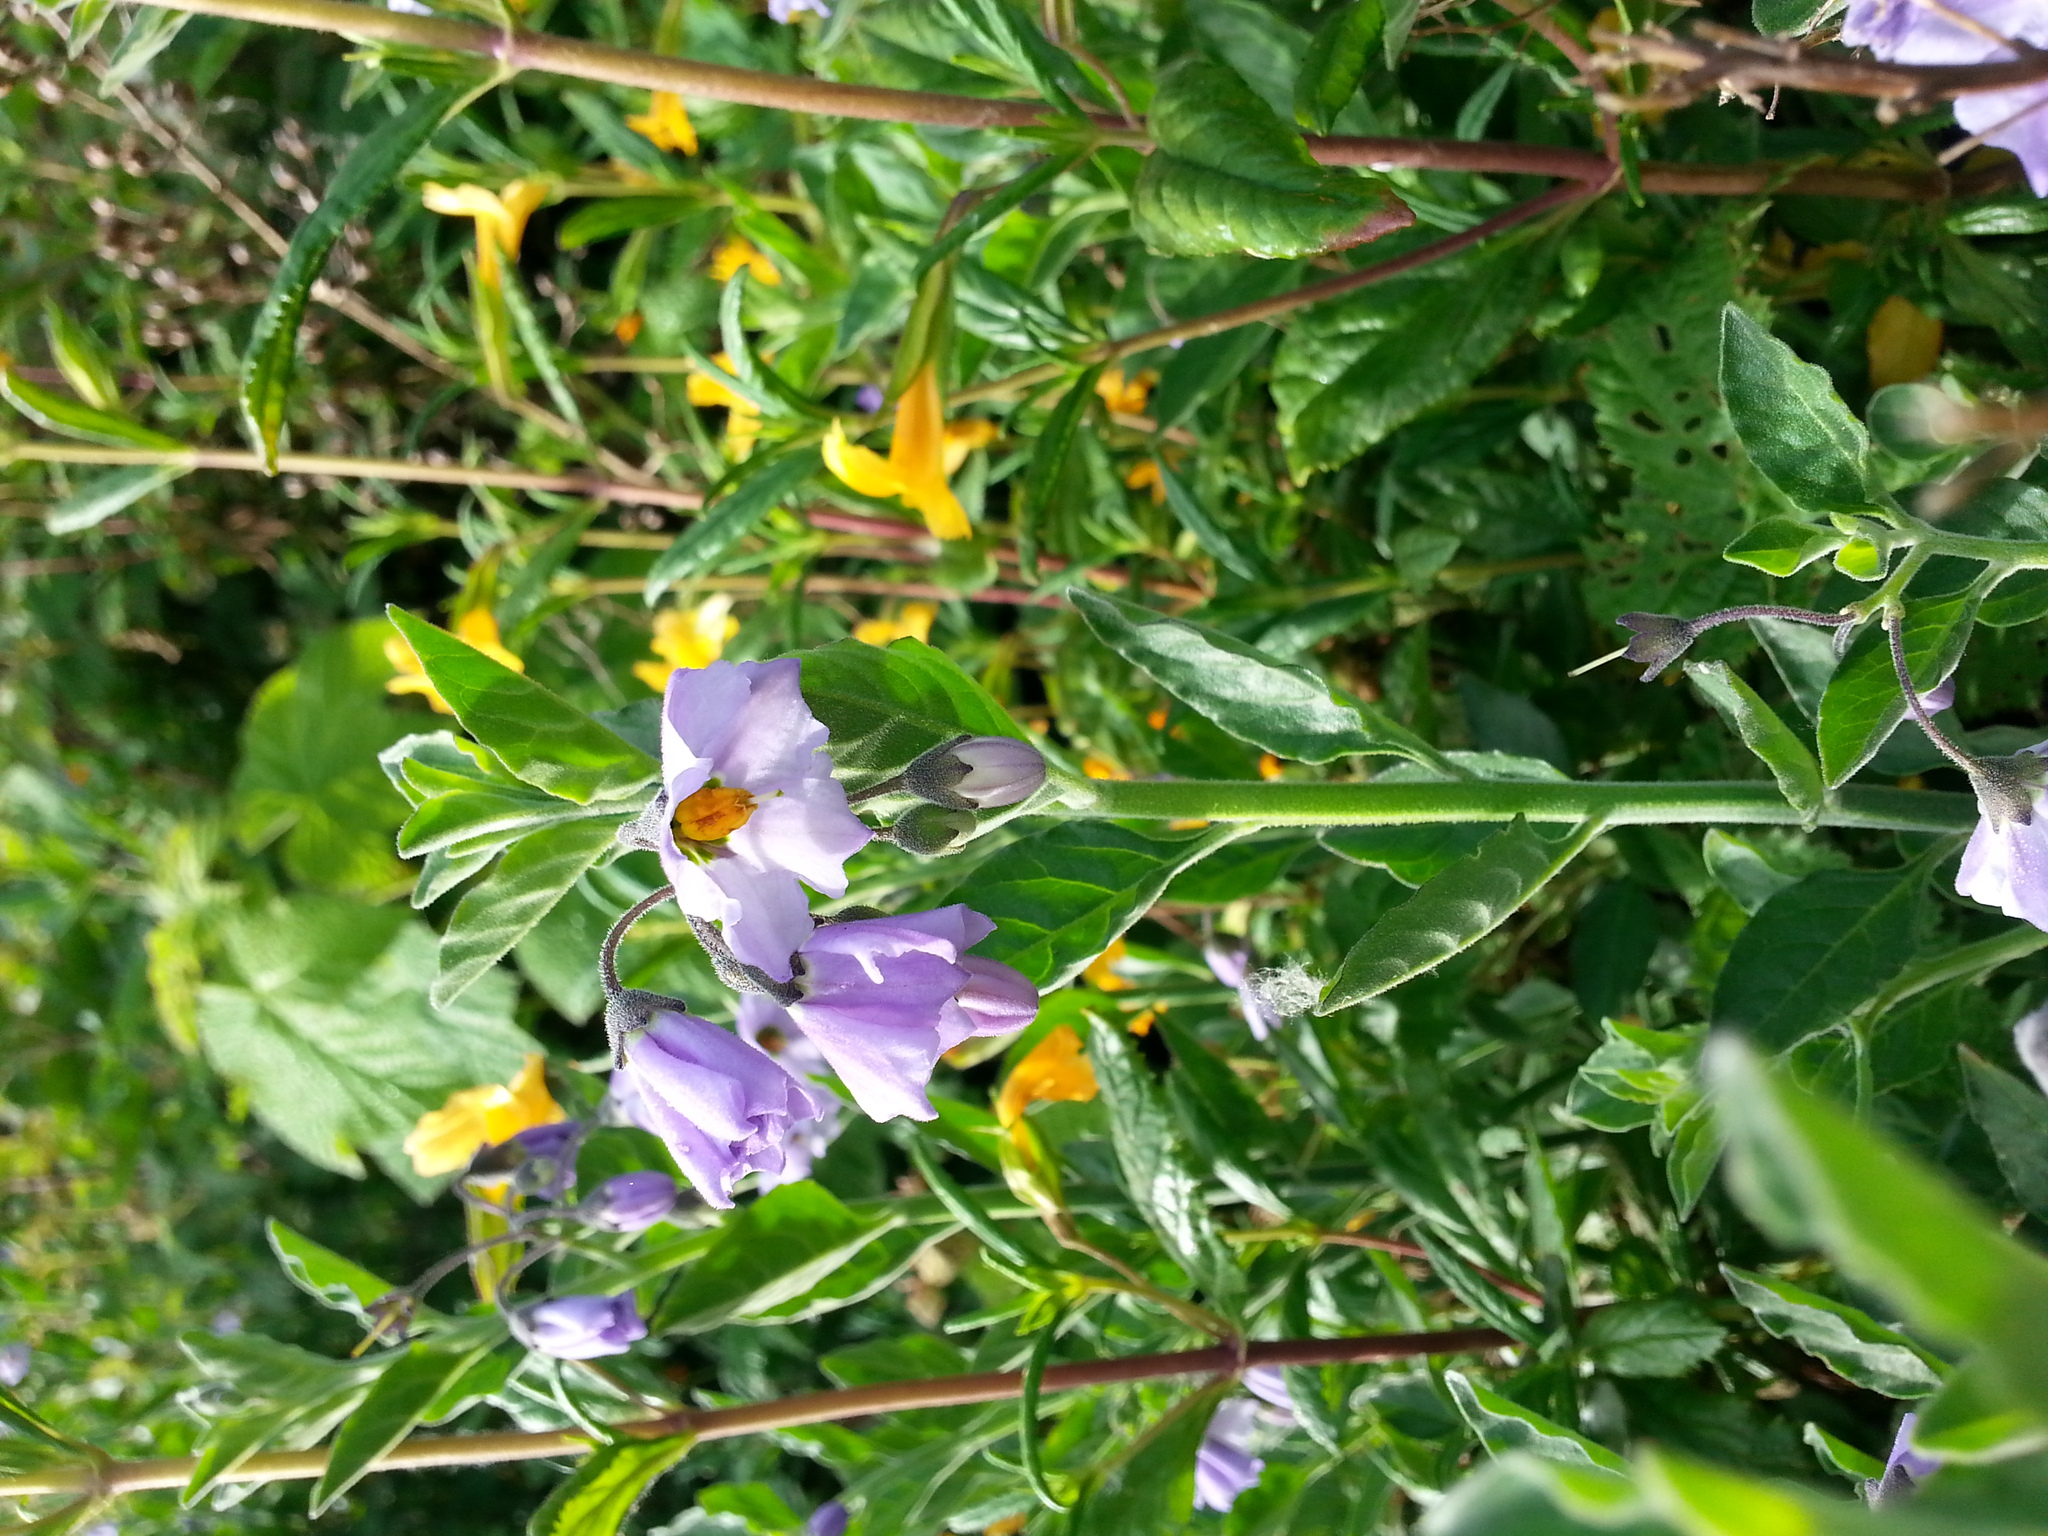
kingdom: Plantae
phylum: Tracheophyta
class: Magnoliopsida
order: Solanales
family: Solanaceae
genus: Solanum
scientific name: Solanum umbelliferum
